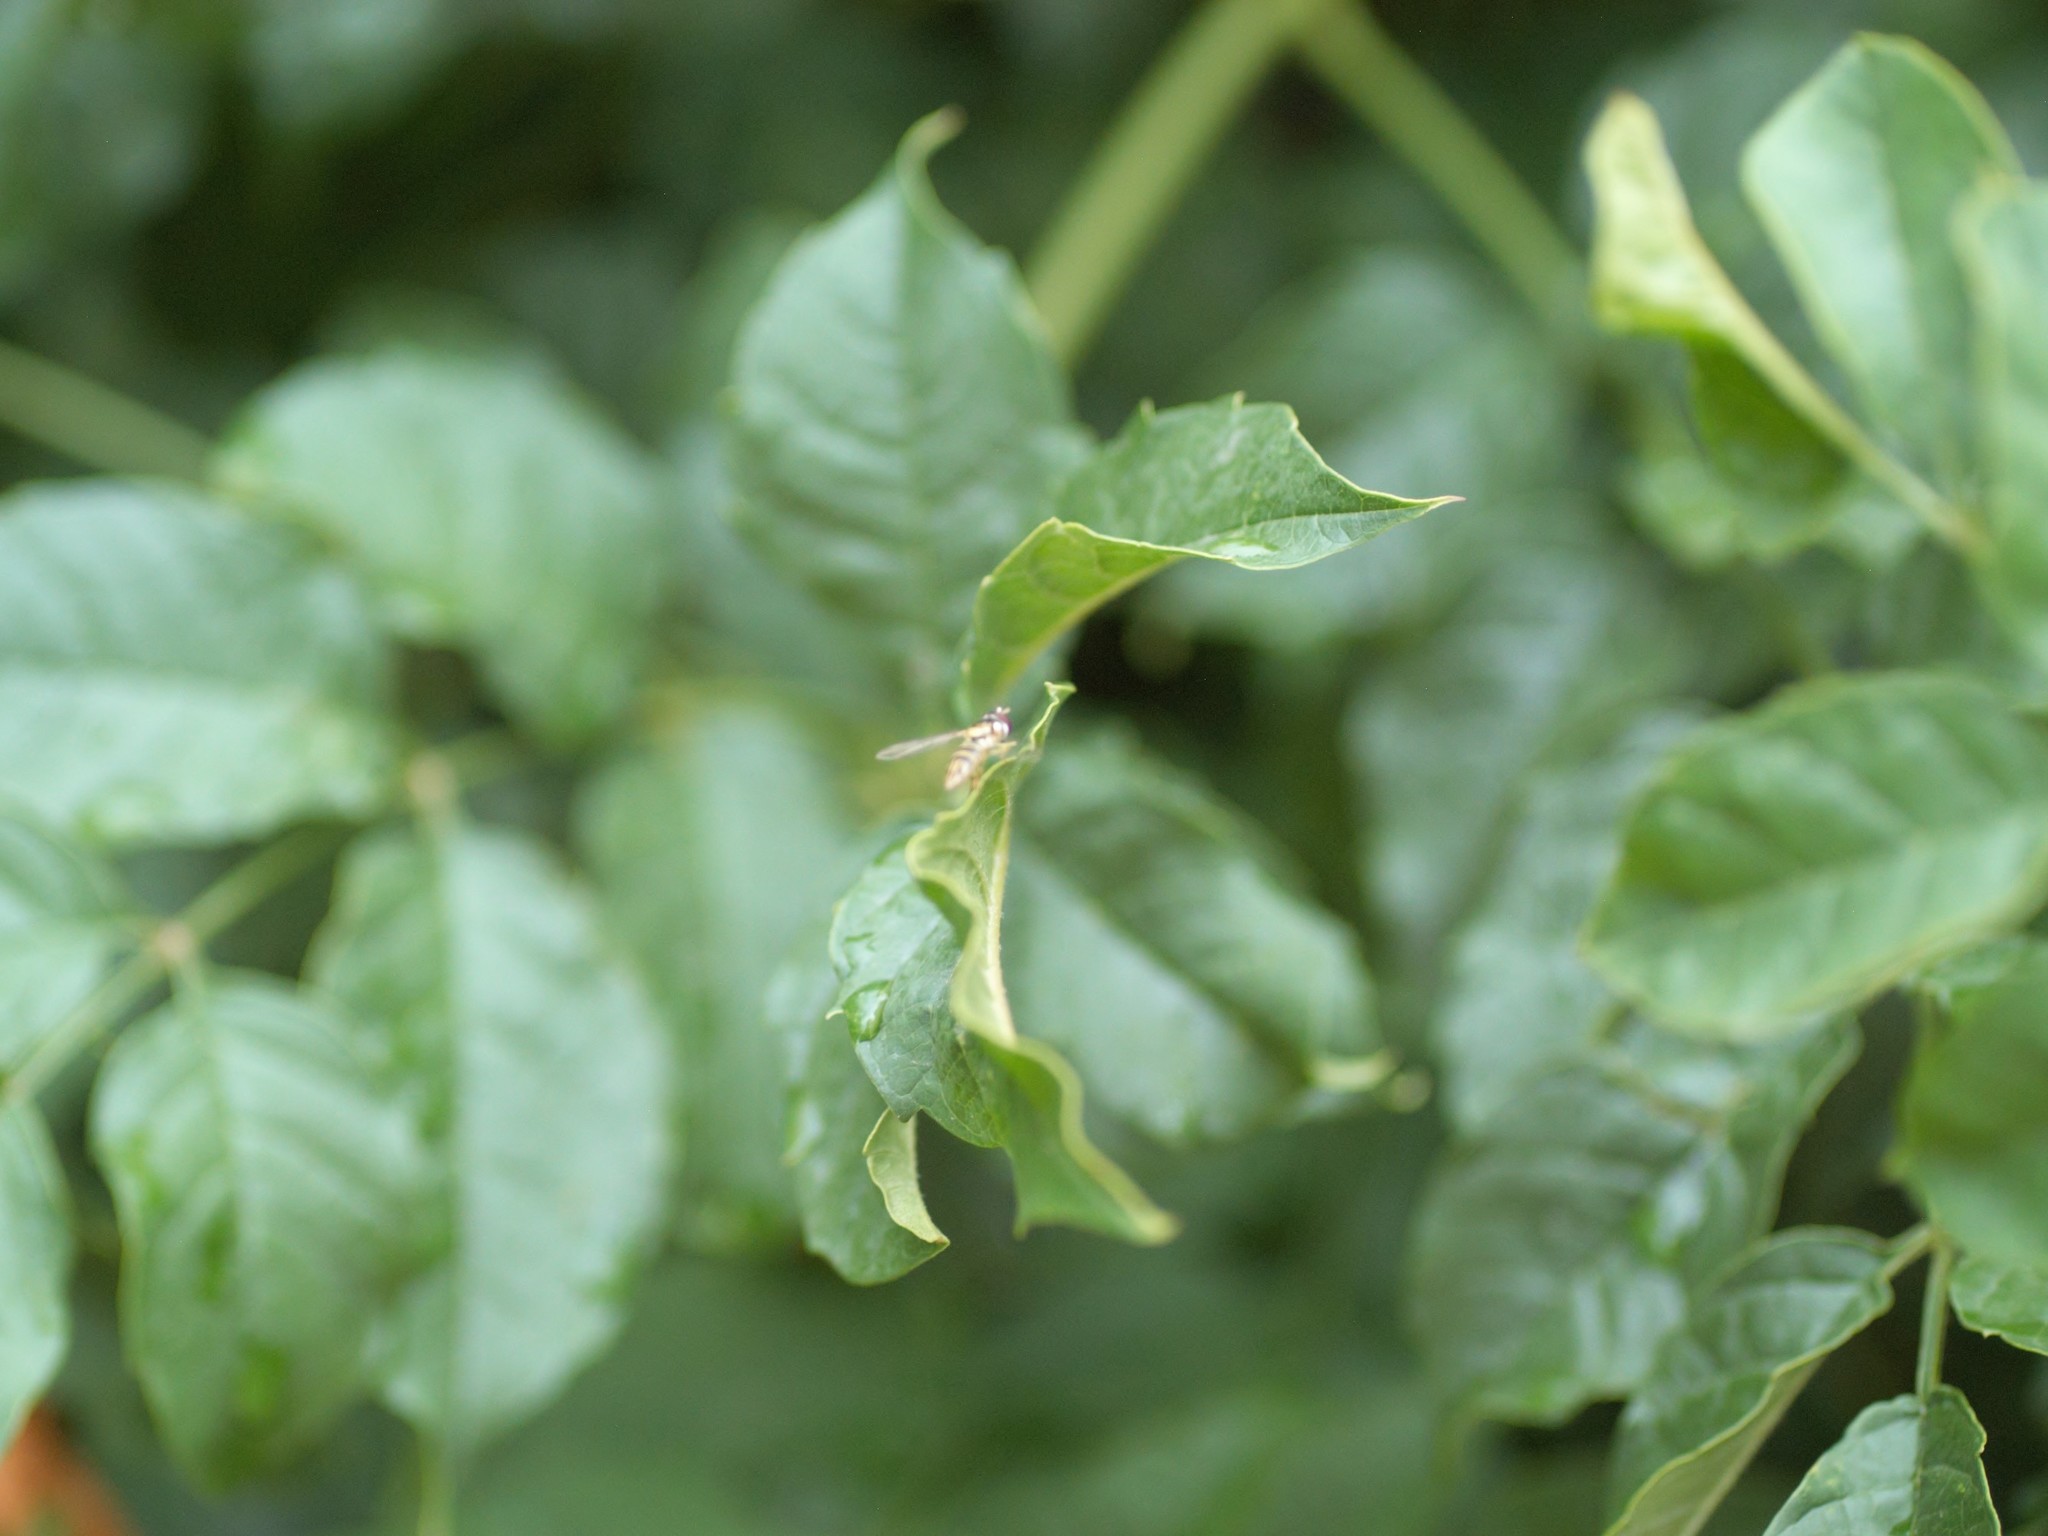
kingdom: Animalia
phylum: Arthropoda
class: Insecta
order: Diptera
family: Syrphidae
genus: Allograpta
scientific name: Allograpta obliqua
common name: Common oblique syrphid
